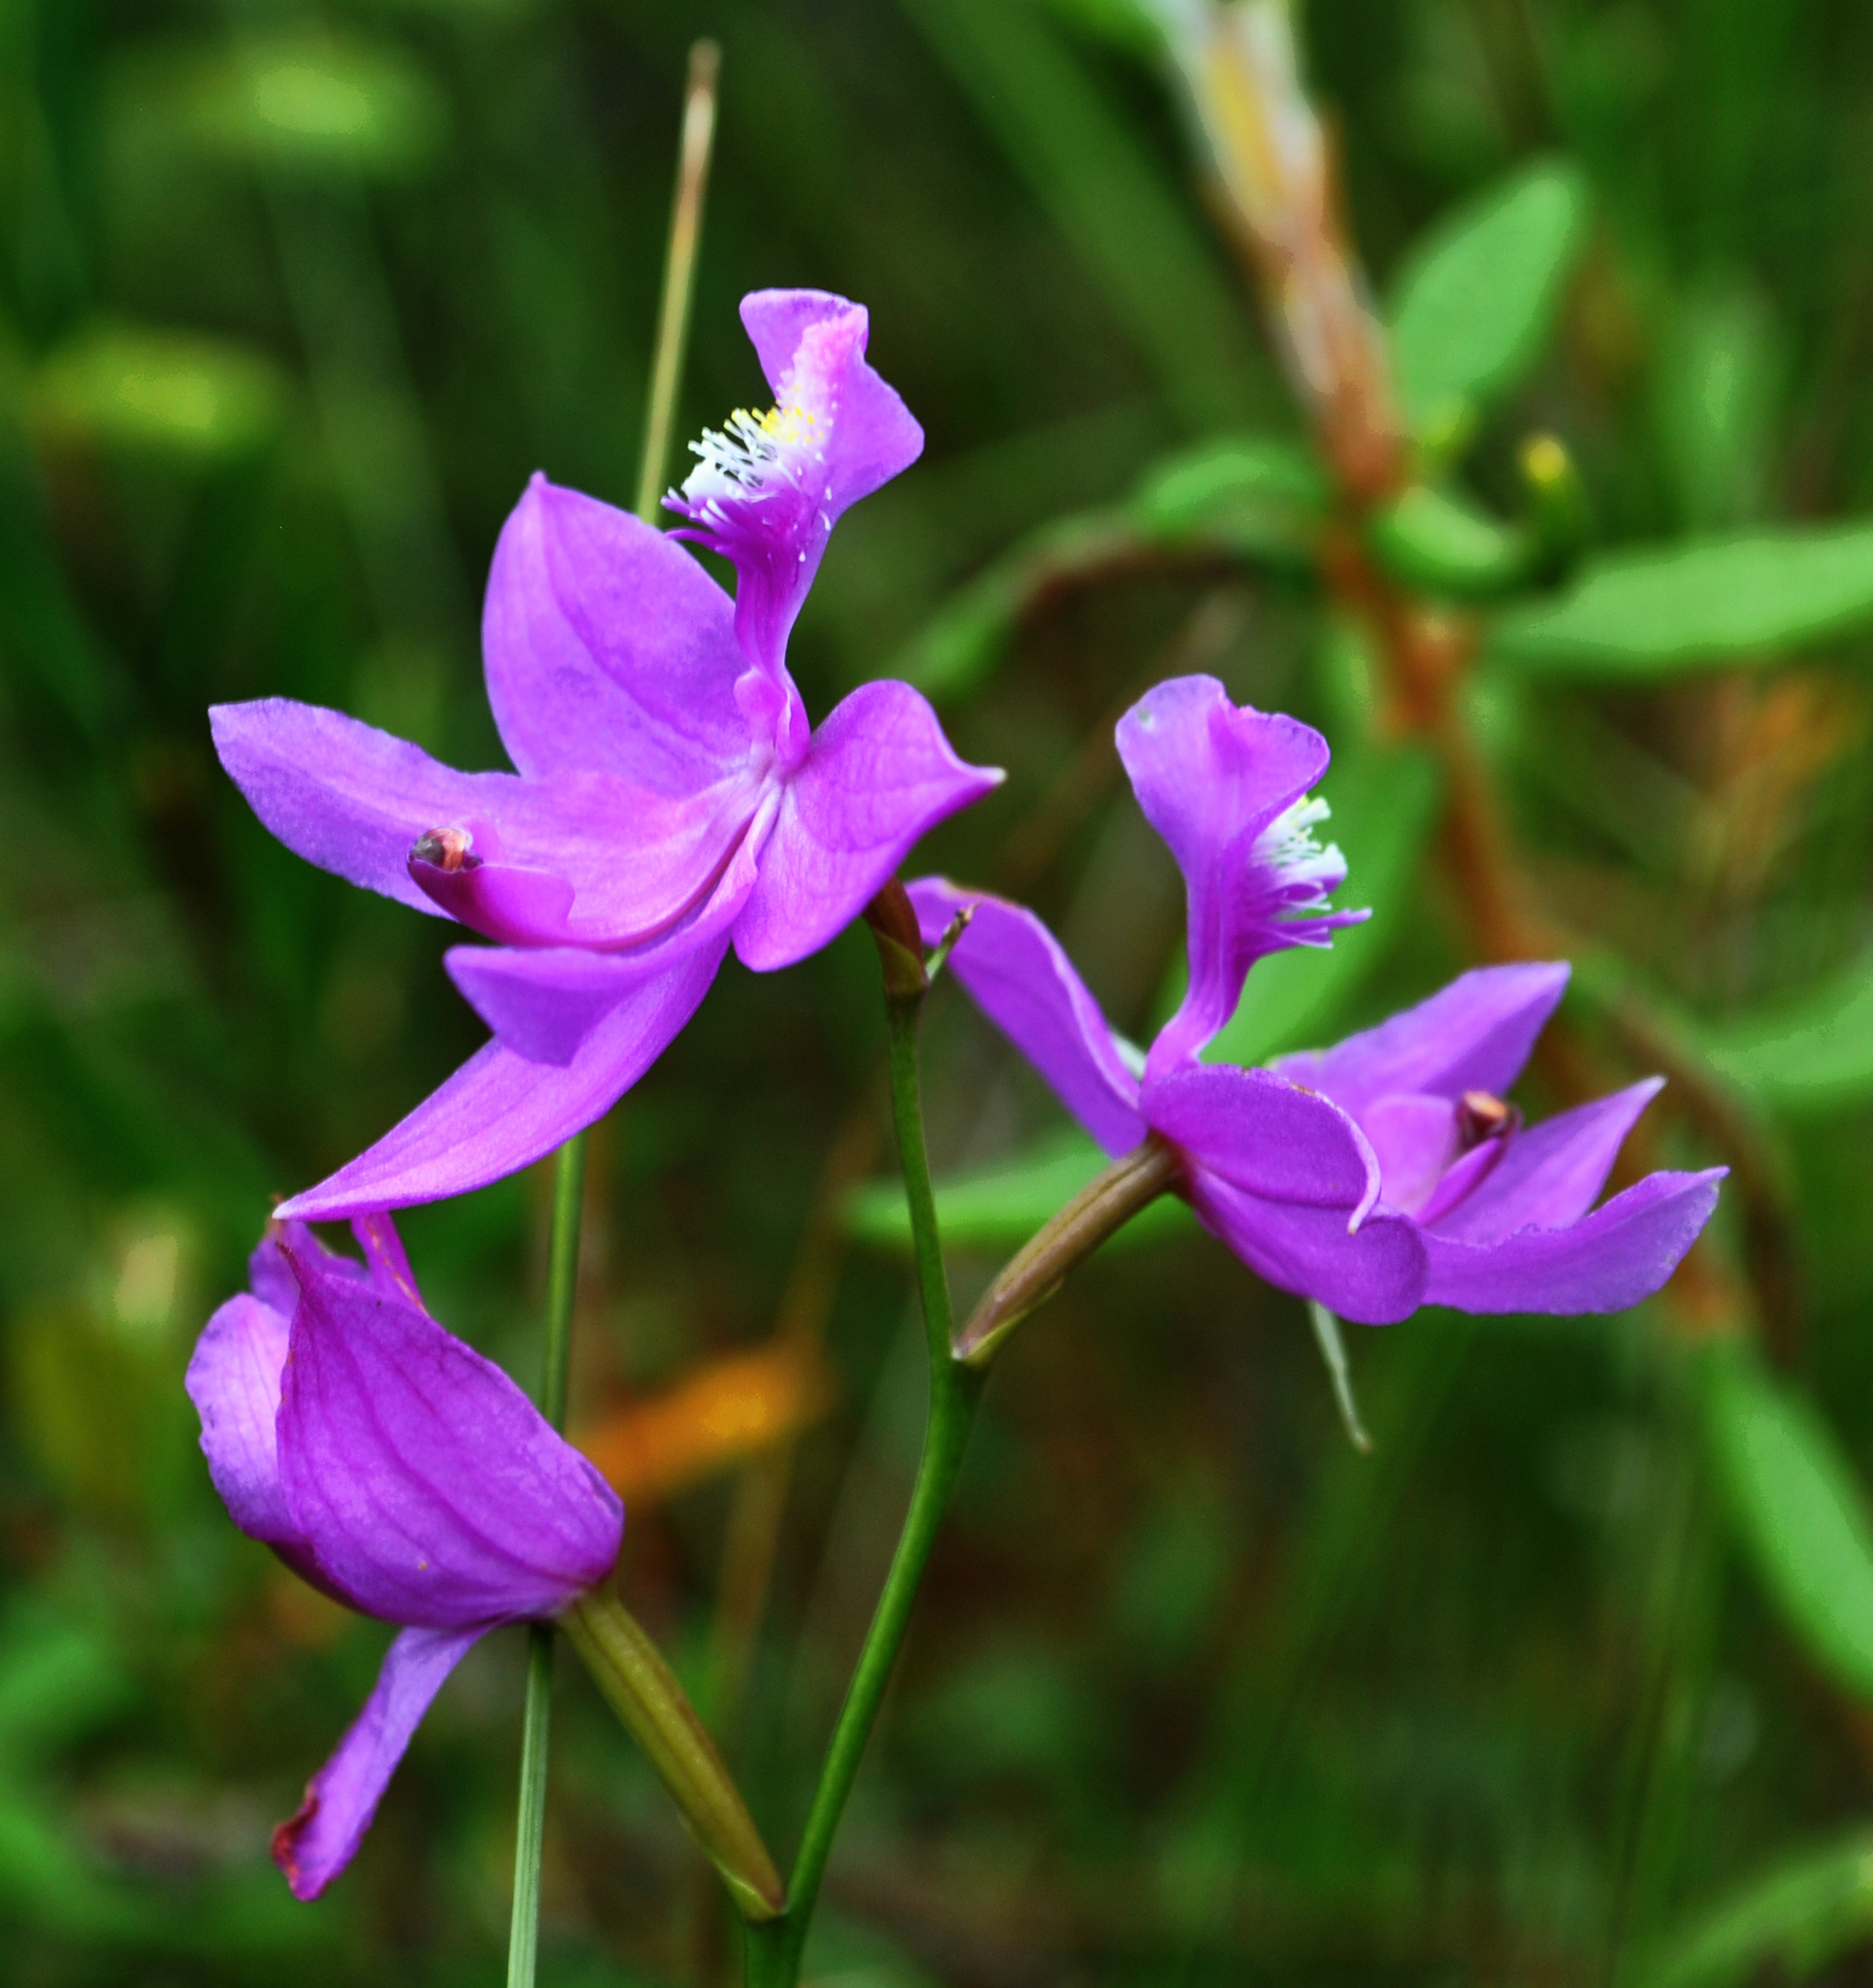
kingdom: Plantae
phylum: Tracheophyta
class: Liliopsida
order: Asparagales
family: Orchidaceae
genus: Calopogon
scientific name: Calopogon tuberosus
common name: Grass-pink
